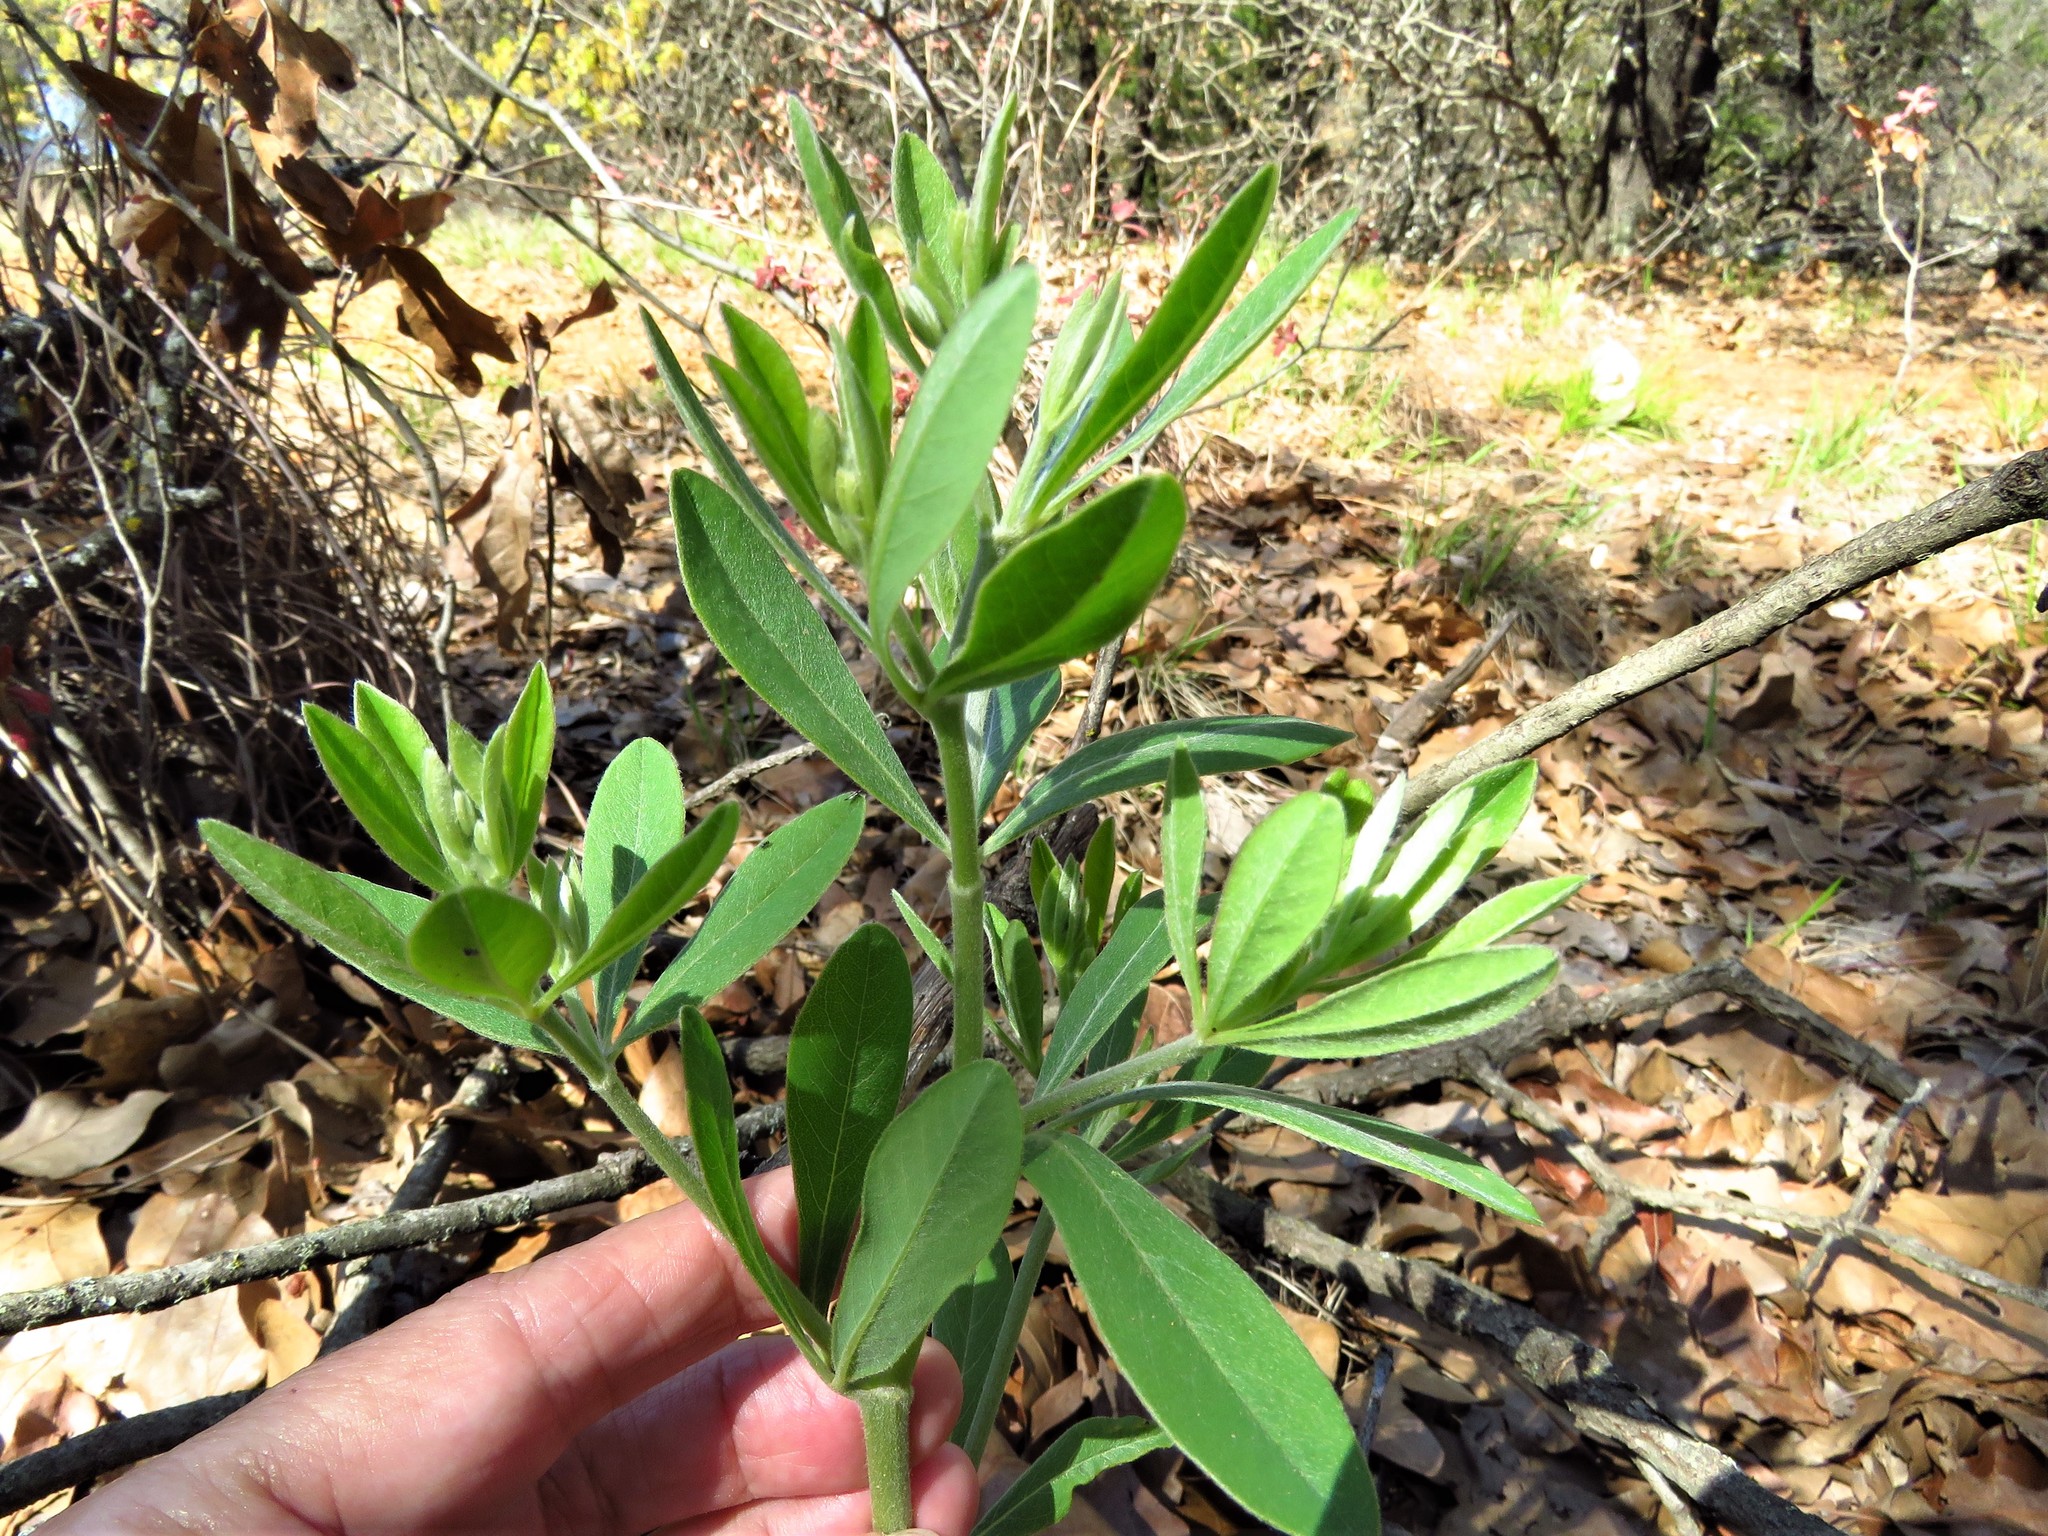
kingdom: Plantae
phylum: Tracheophyta
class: Magnoliopsida
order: Fabales
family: Fabaceae
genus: Baptisia
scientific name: Baptisia nuttalliana
